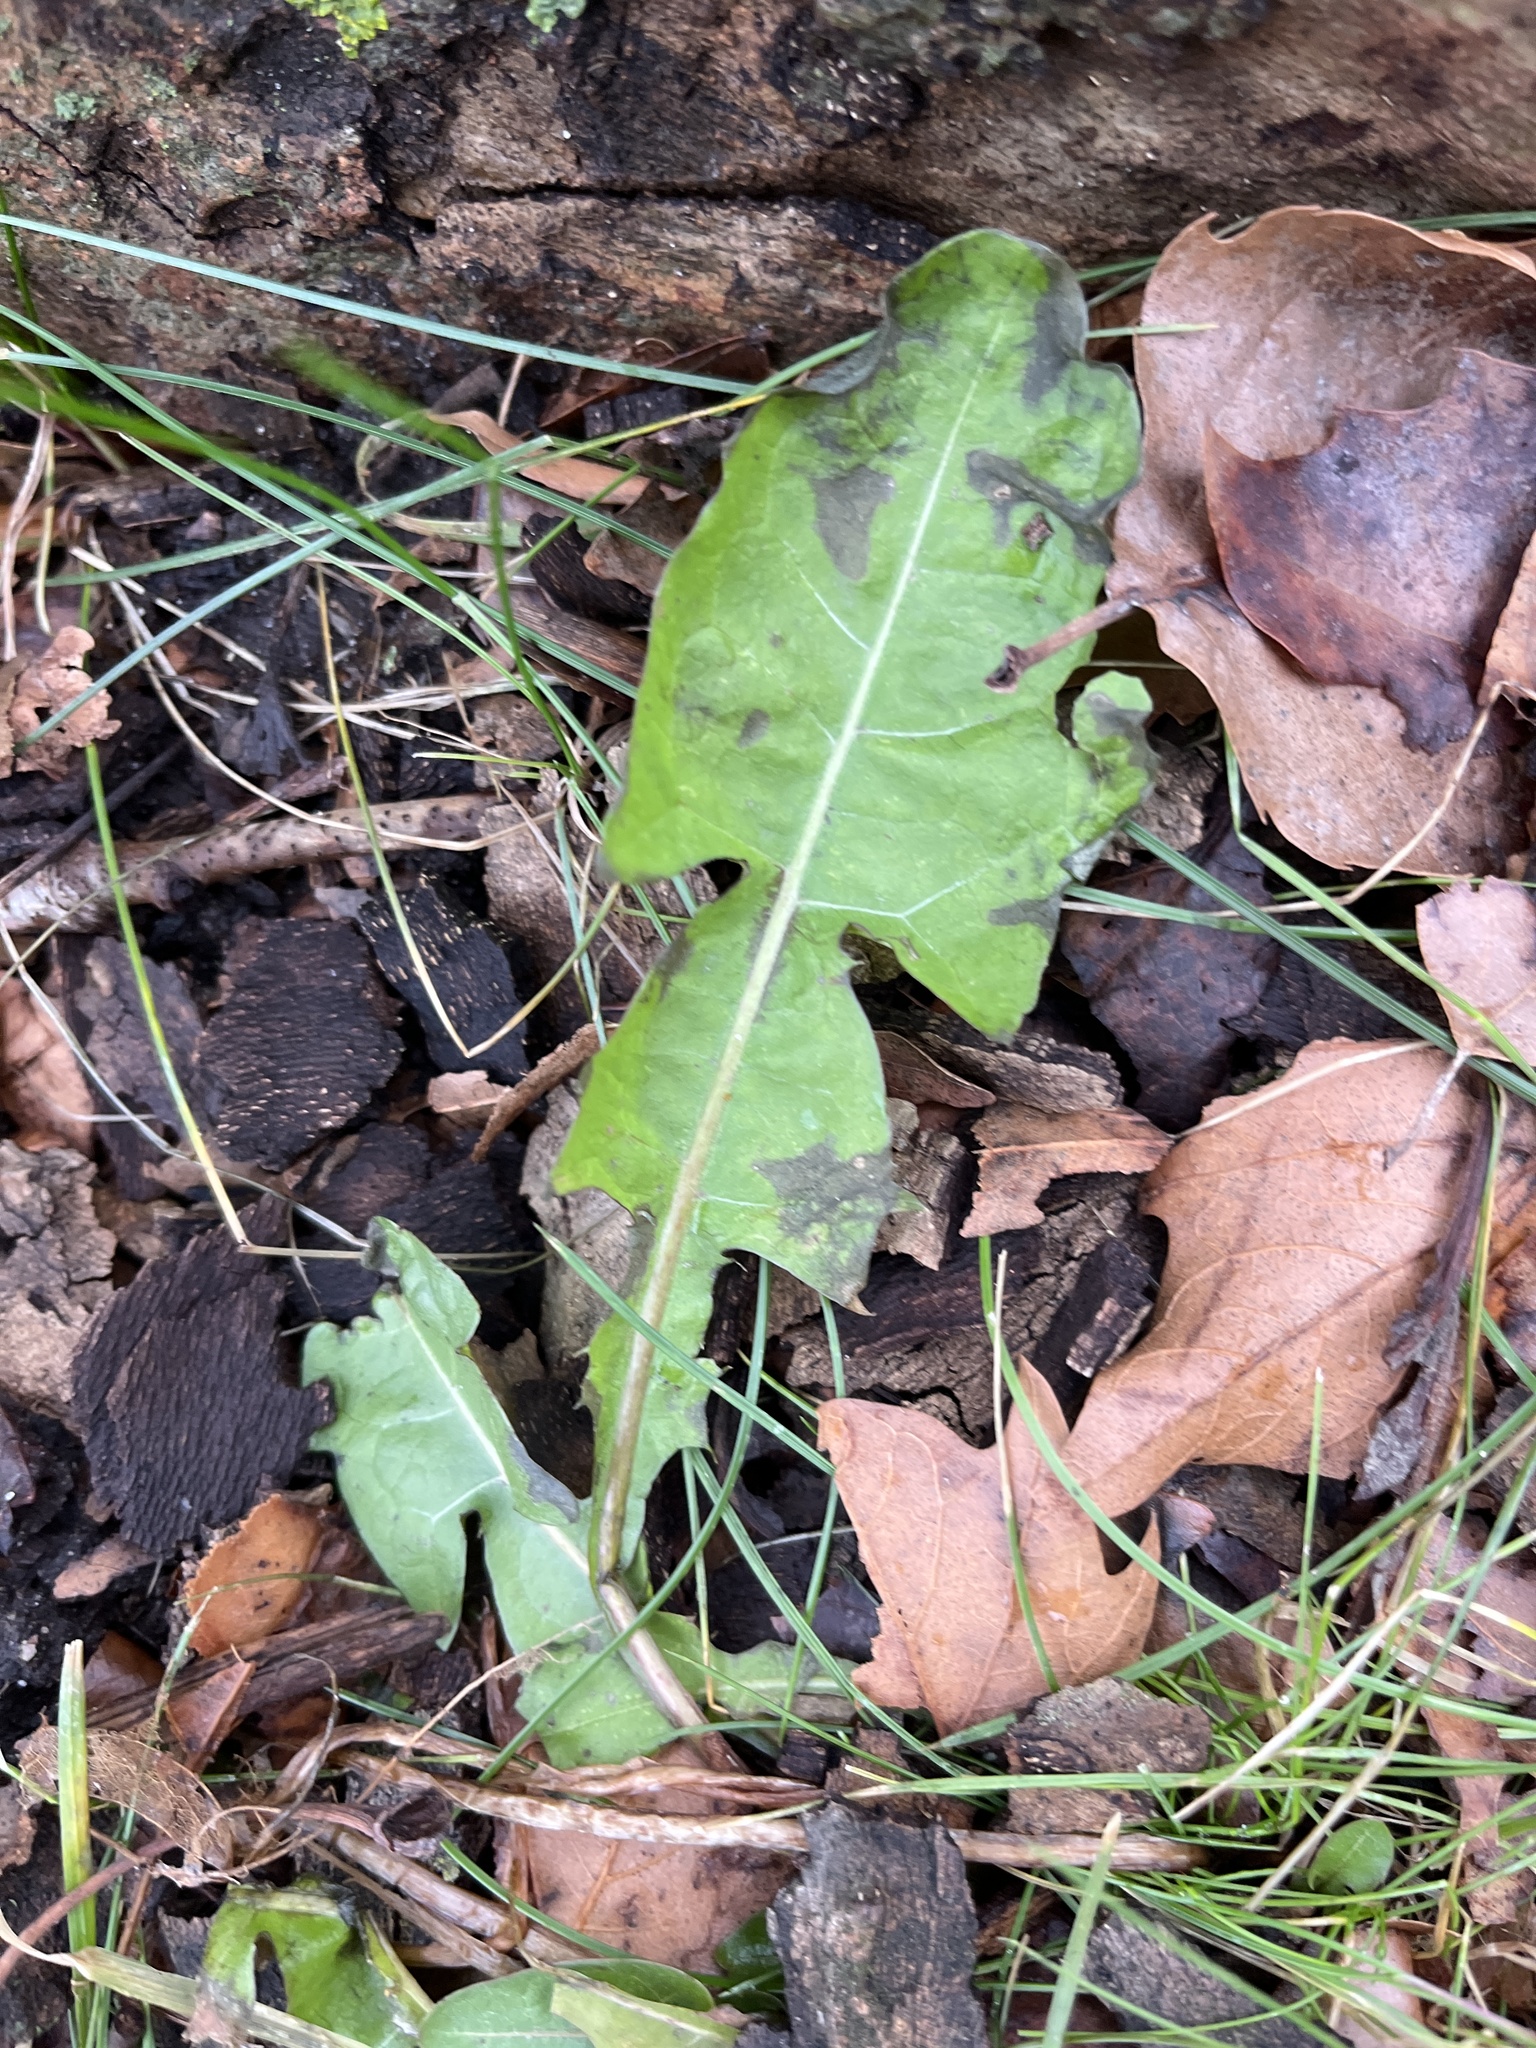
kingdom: Plantae
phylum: Tracheophyta
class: Magnoliopsida
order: Asterales
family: Asteraceae
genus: Taraxacum
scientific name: Taraxacum officinale
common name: Common dandelion
